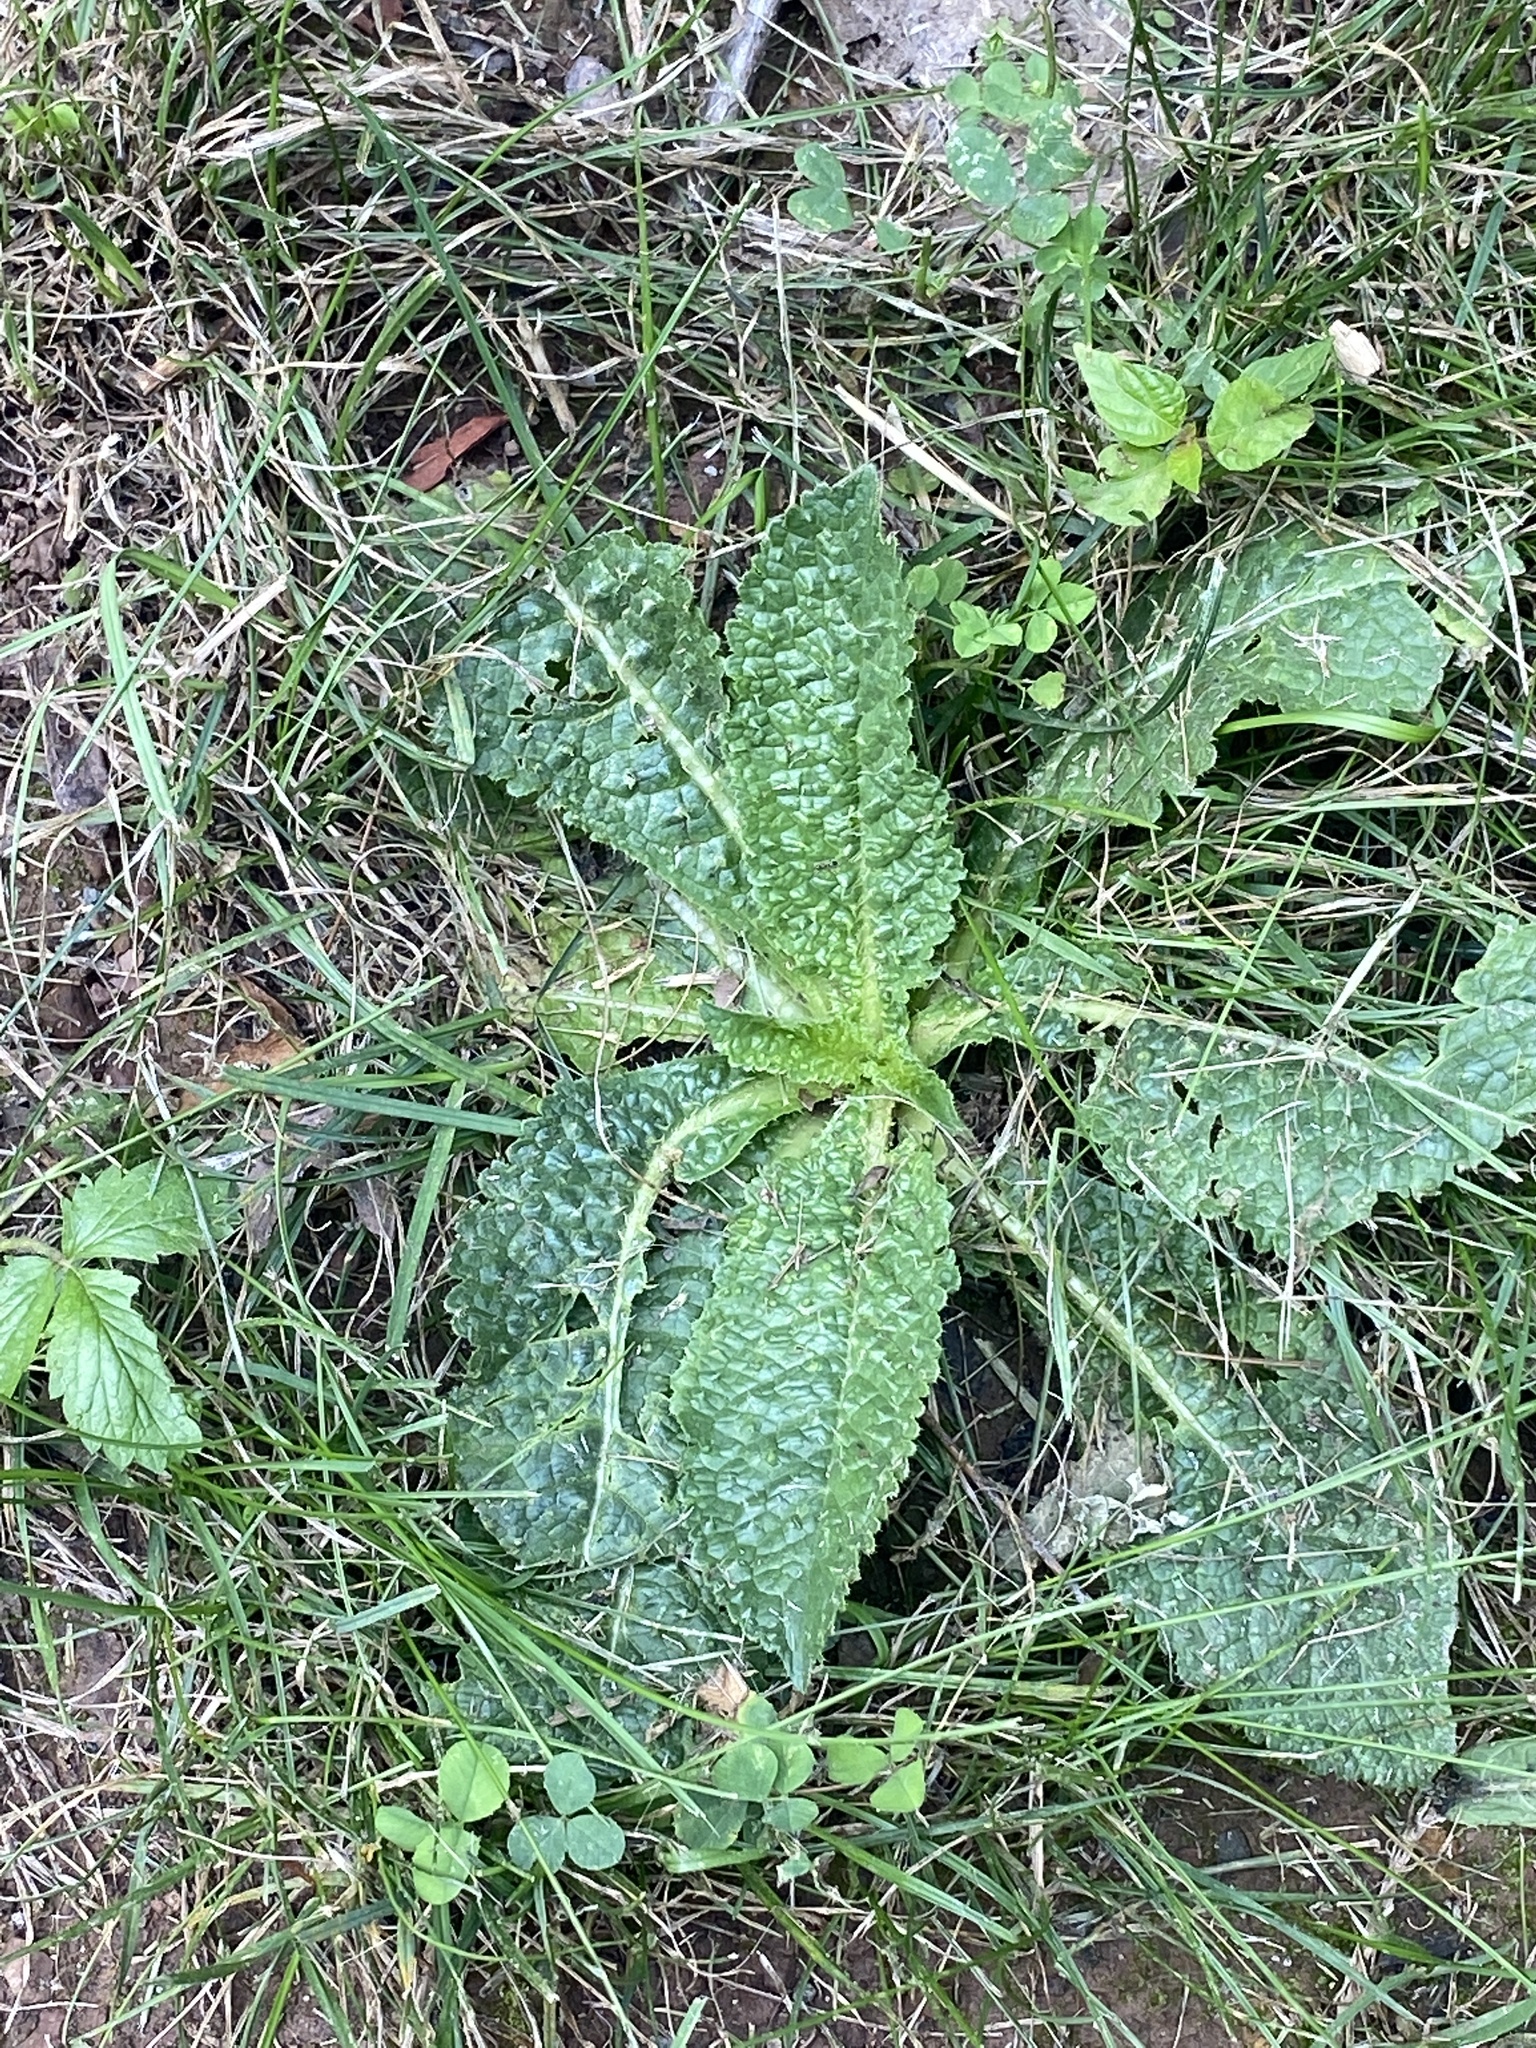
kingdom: Plantae
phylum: Tracheophyta
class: Magnoliopsida
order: Dipsacales
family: Caprifoliaceae
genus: Dipsacus
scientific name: Dipsacus fullonum
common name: Teasel
